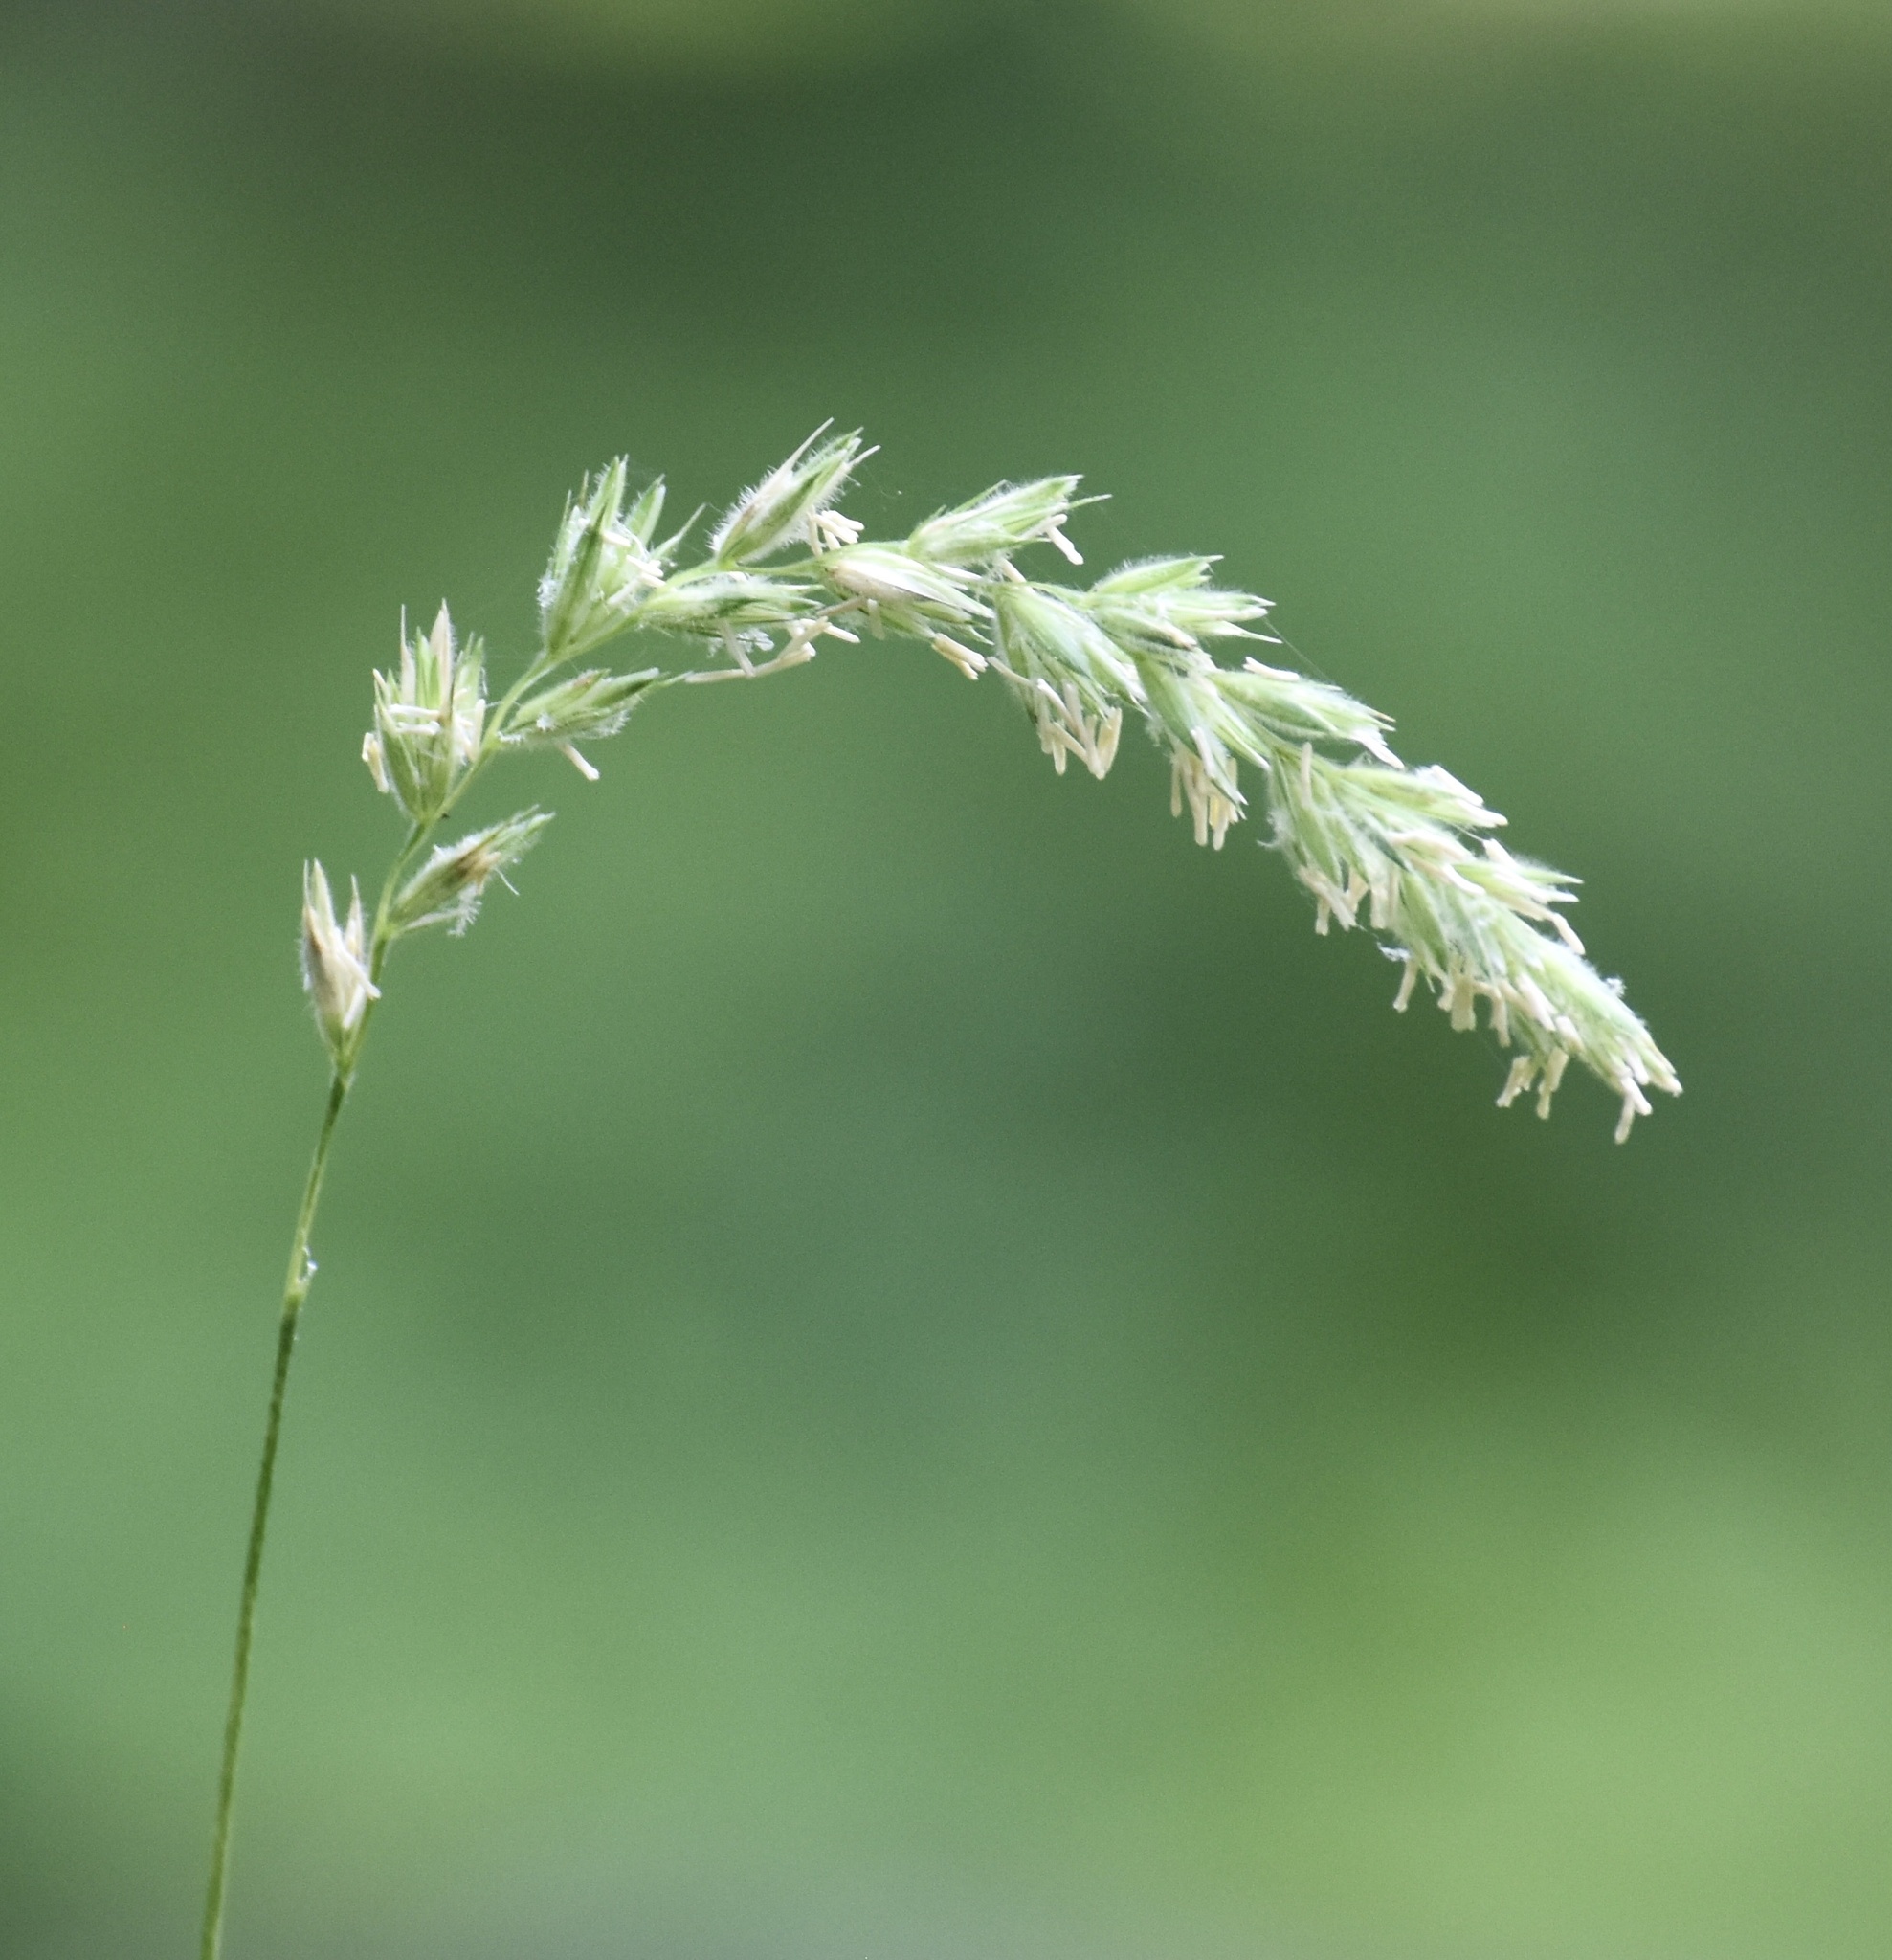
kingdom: Plantae
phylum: Tracheophyta
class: Liliopsida
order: Poales
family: Poaceae
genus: Leymus
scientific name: Leymus innovatus
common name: Boreal wild rye
